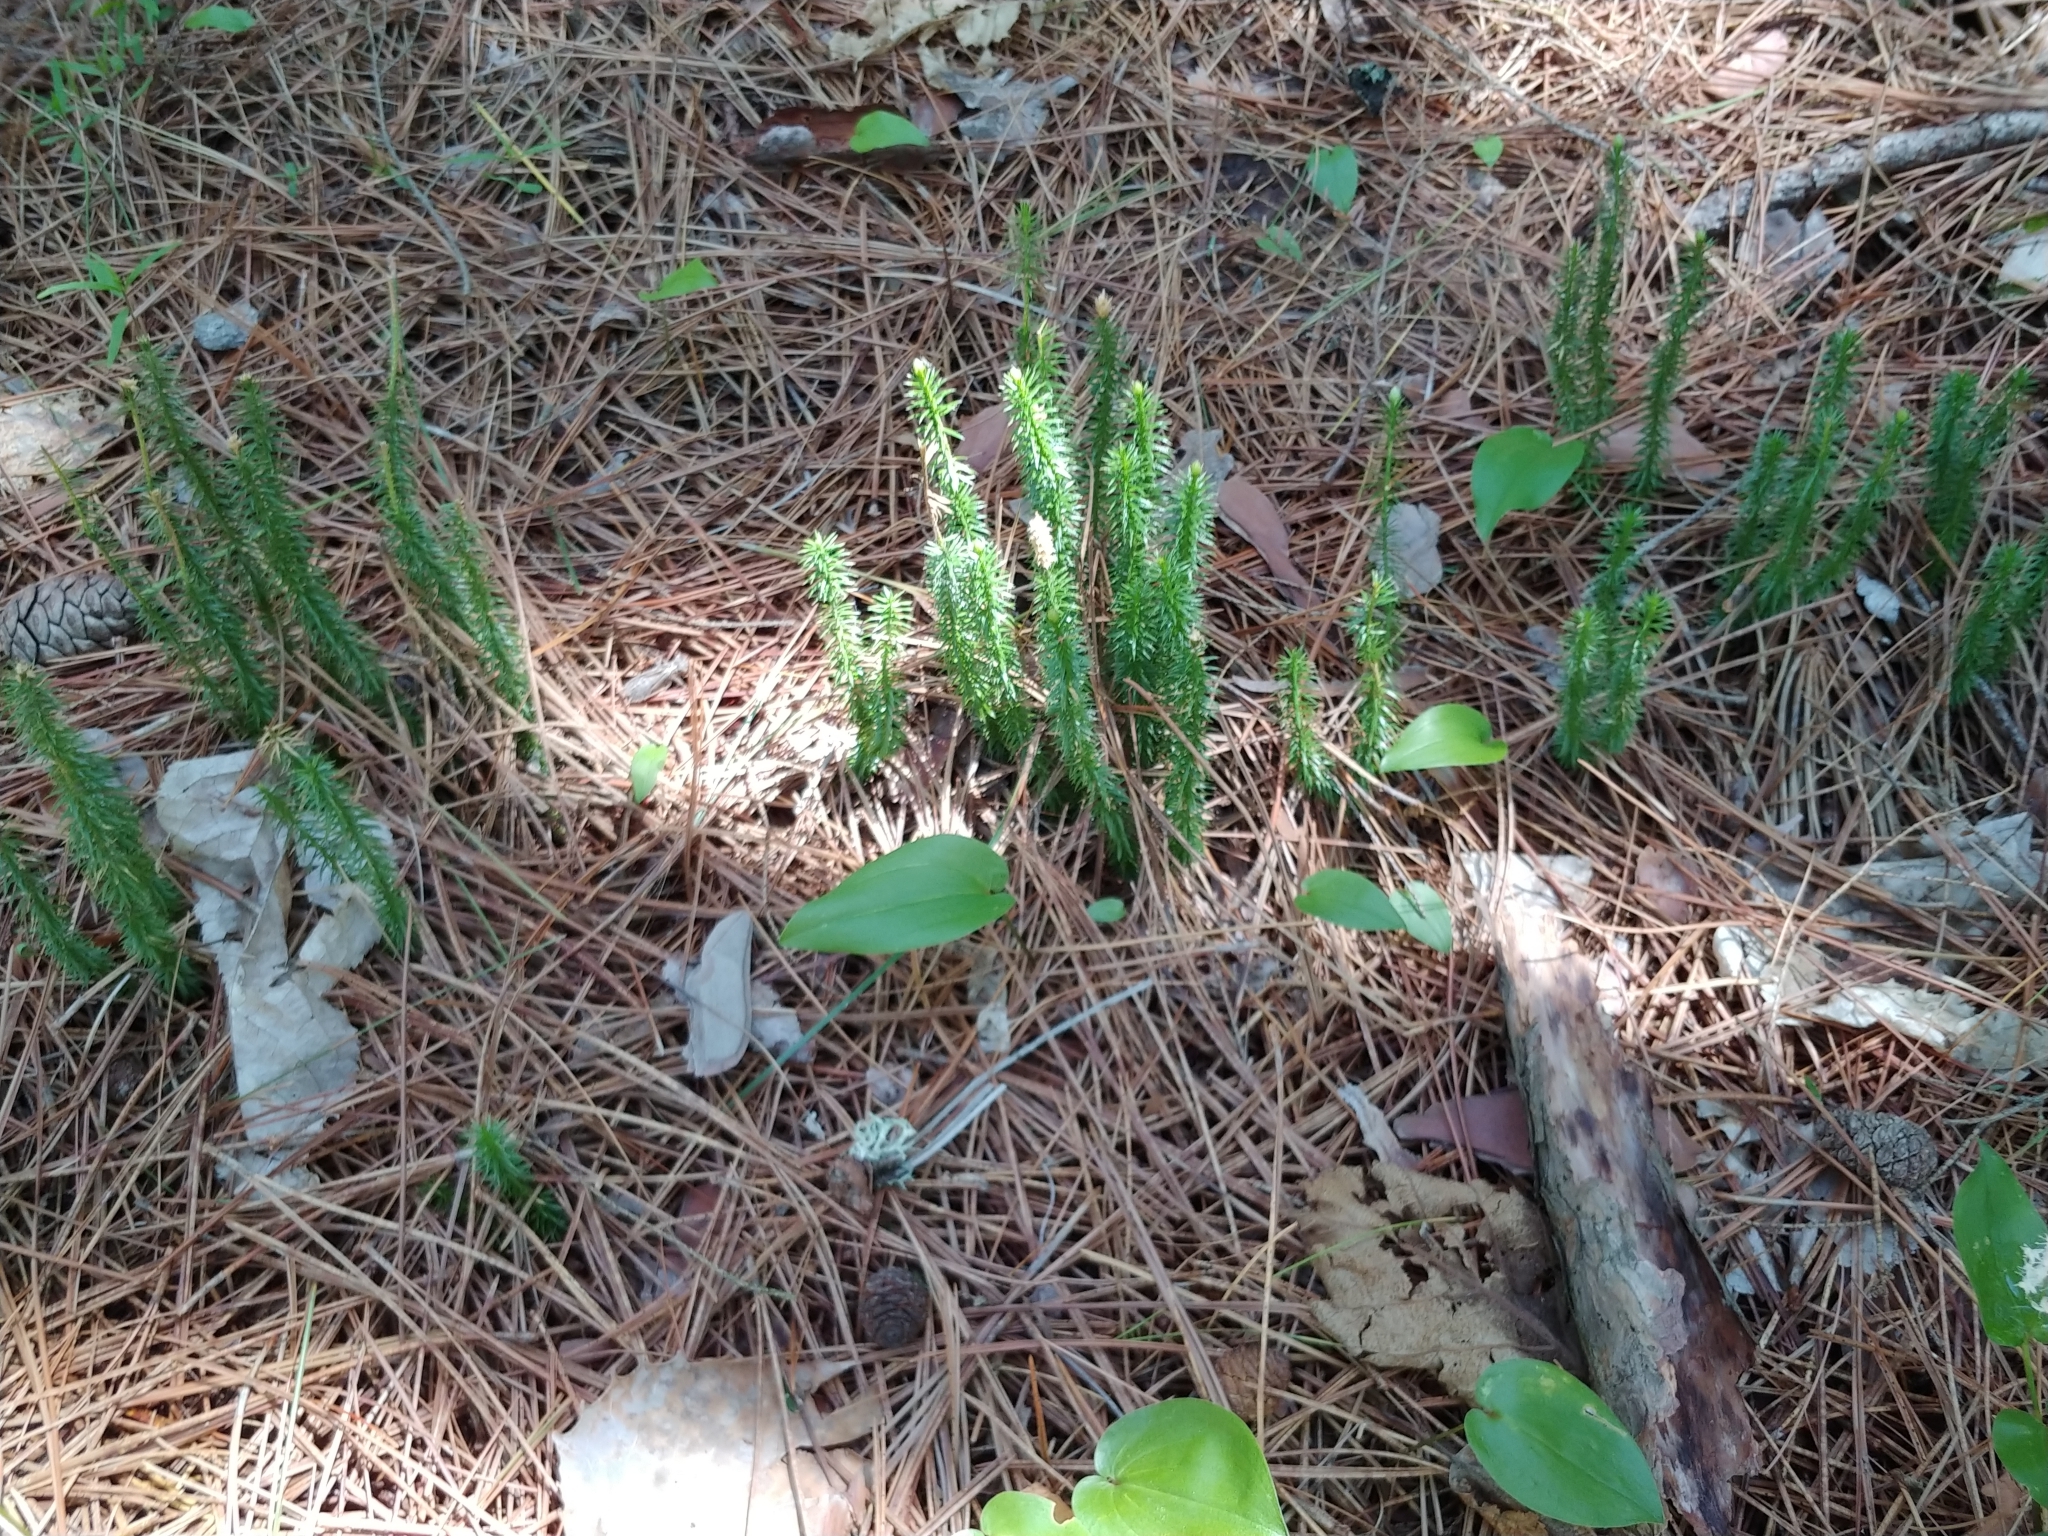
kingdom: Plantae
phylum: Tracheophyta
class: Lycopodiopsida
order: Lycopodiales
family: Lycopodiaceae
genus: Spinulum
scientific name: Spinulum annotinum
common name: Interrupted club-moss
